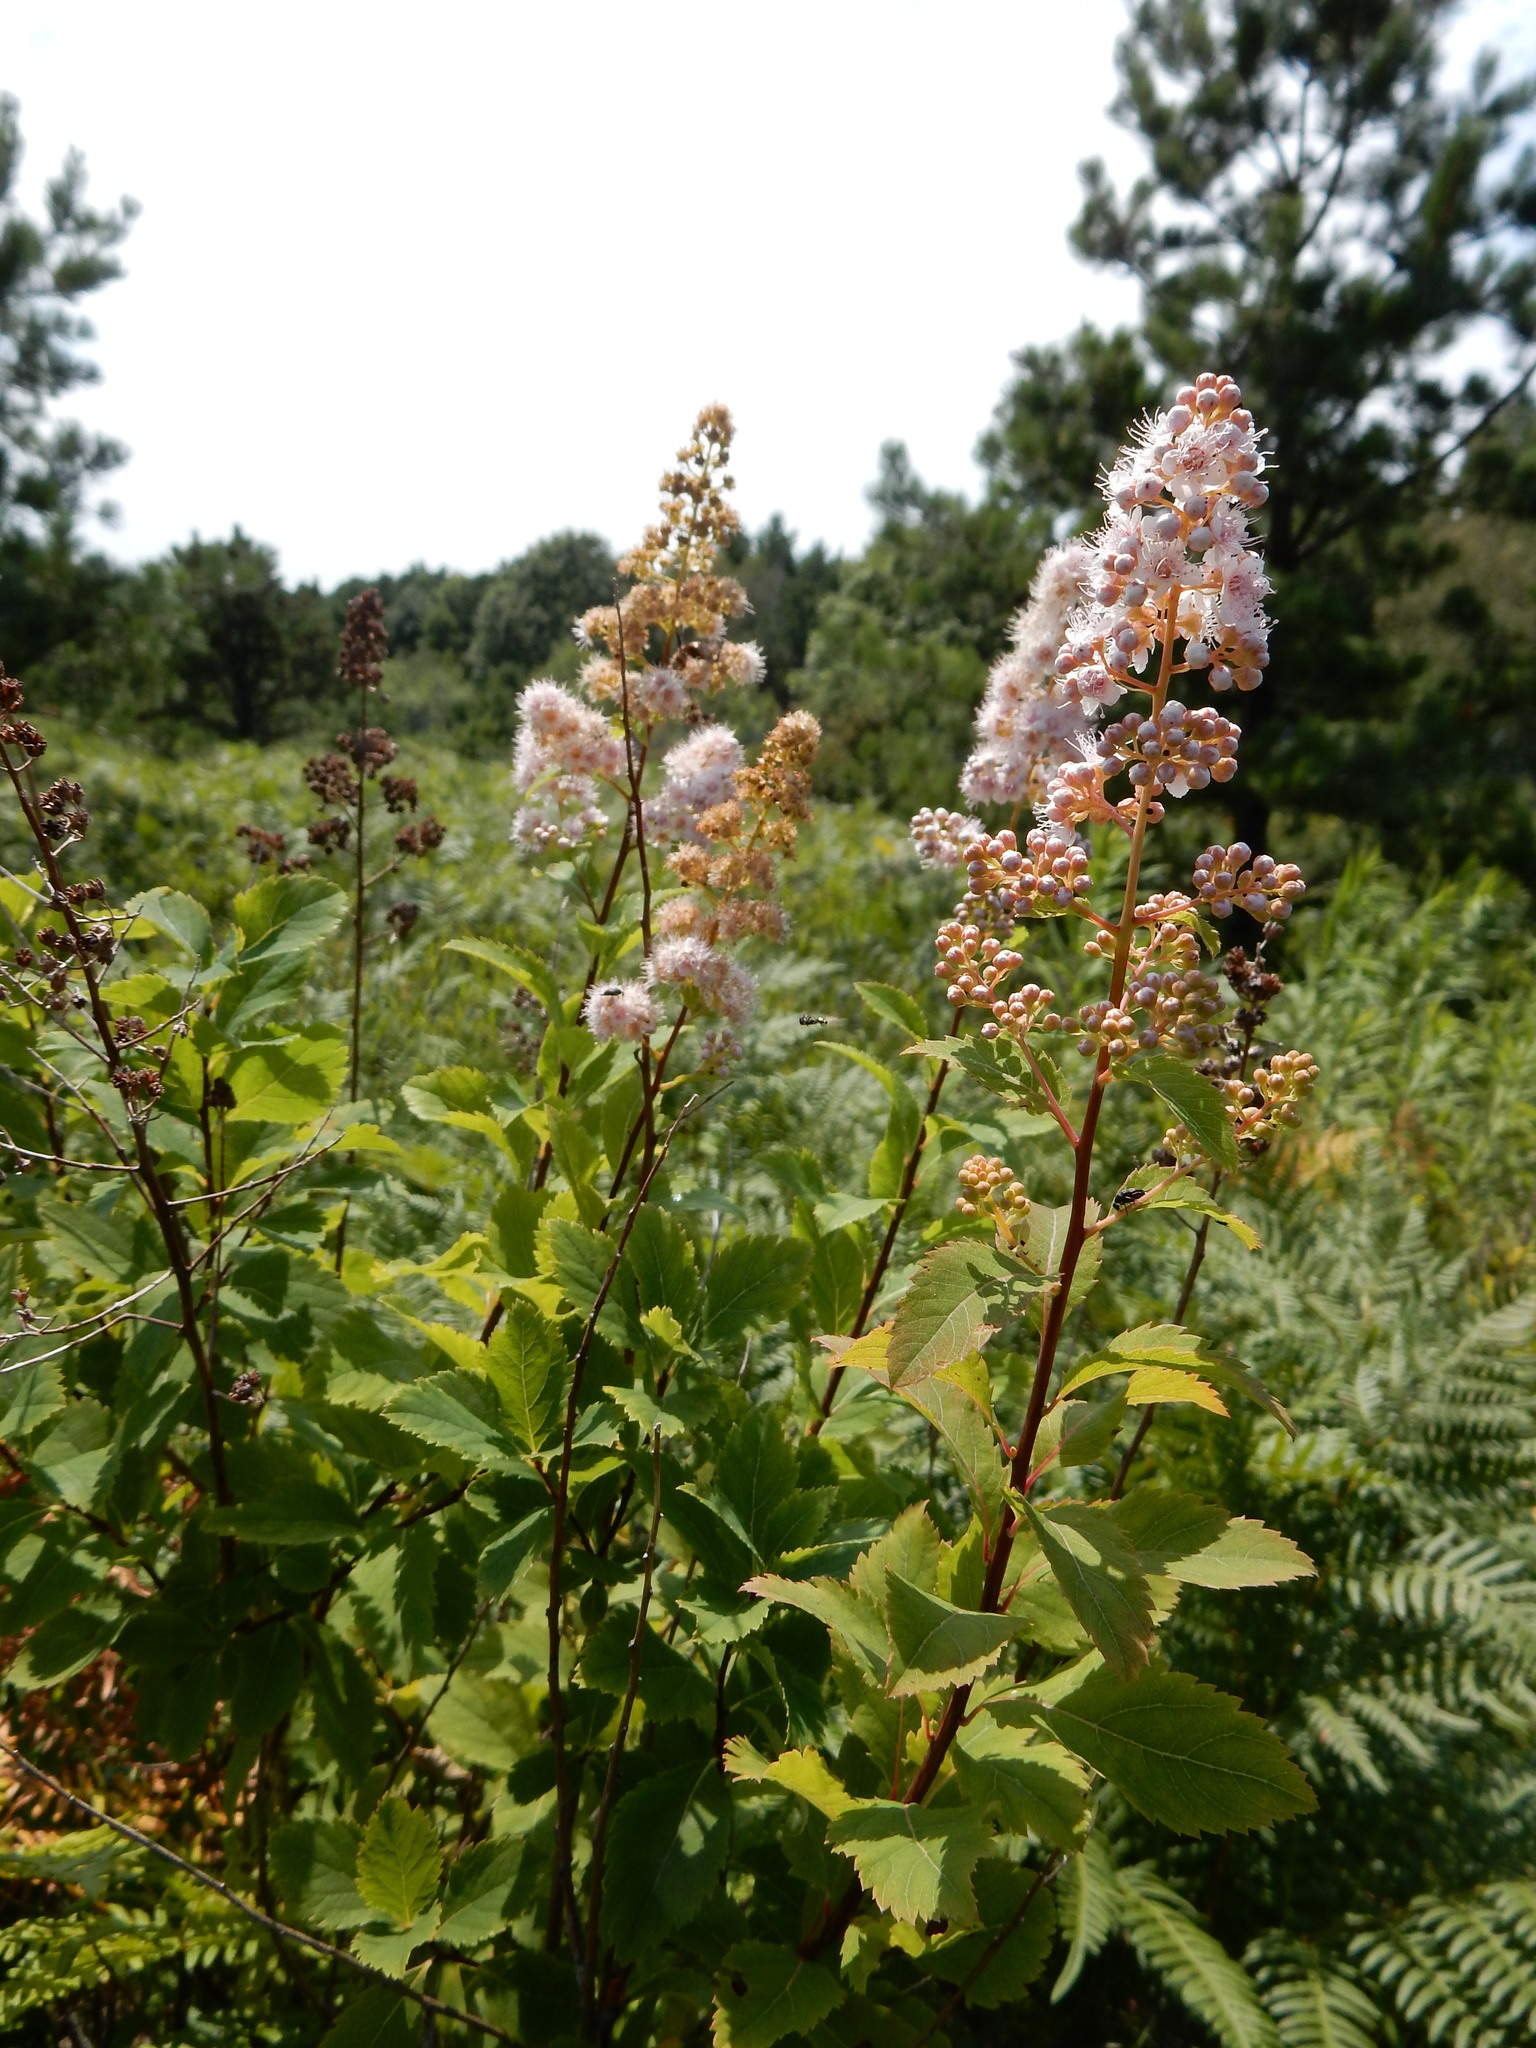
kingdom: Plantae
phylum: Tracheophyta
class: Magnoliopsida
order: Rosales
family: Rosaceae
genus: Spiraea
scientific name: Spiraea alba
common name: Pale bridewort
